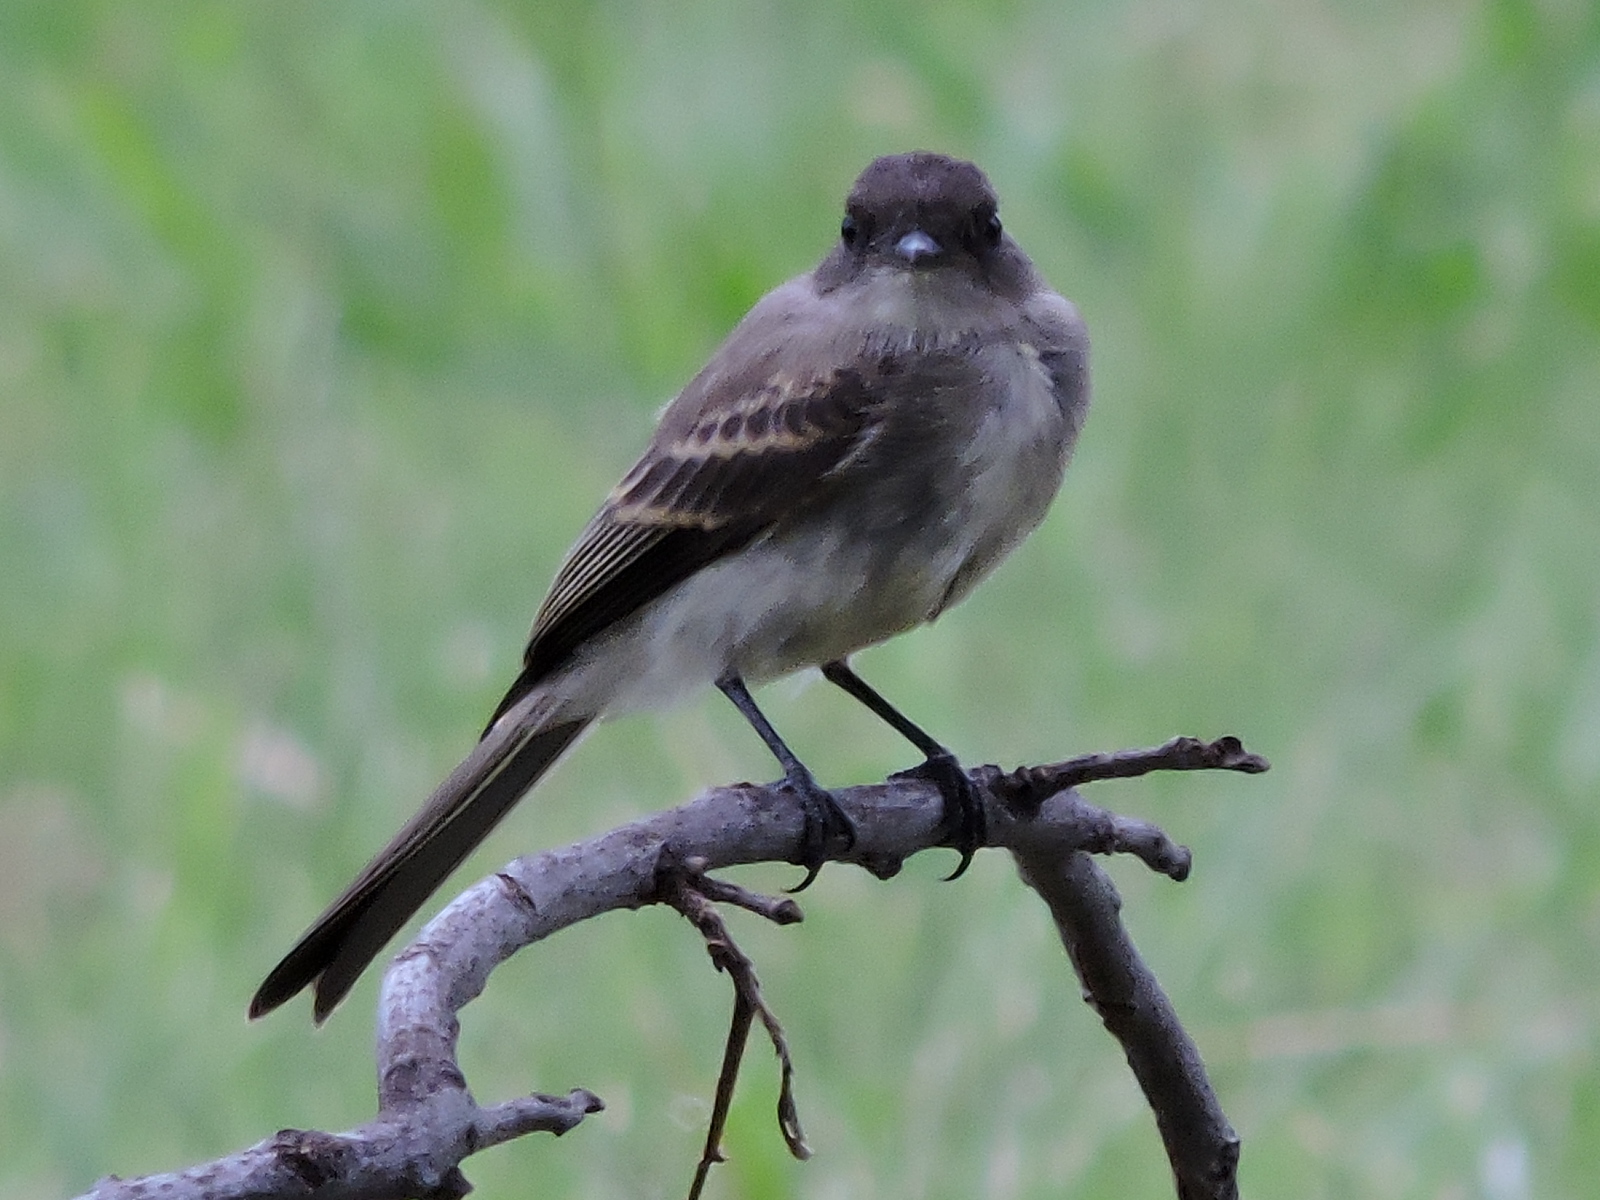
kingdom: Animalia
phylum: Chordata
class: Aves
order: Passeriformes
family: Tyrannidae
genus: Sayornis
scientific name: Sayornis phoebe
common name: Eastern phoebe
